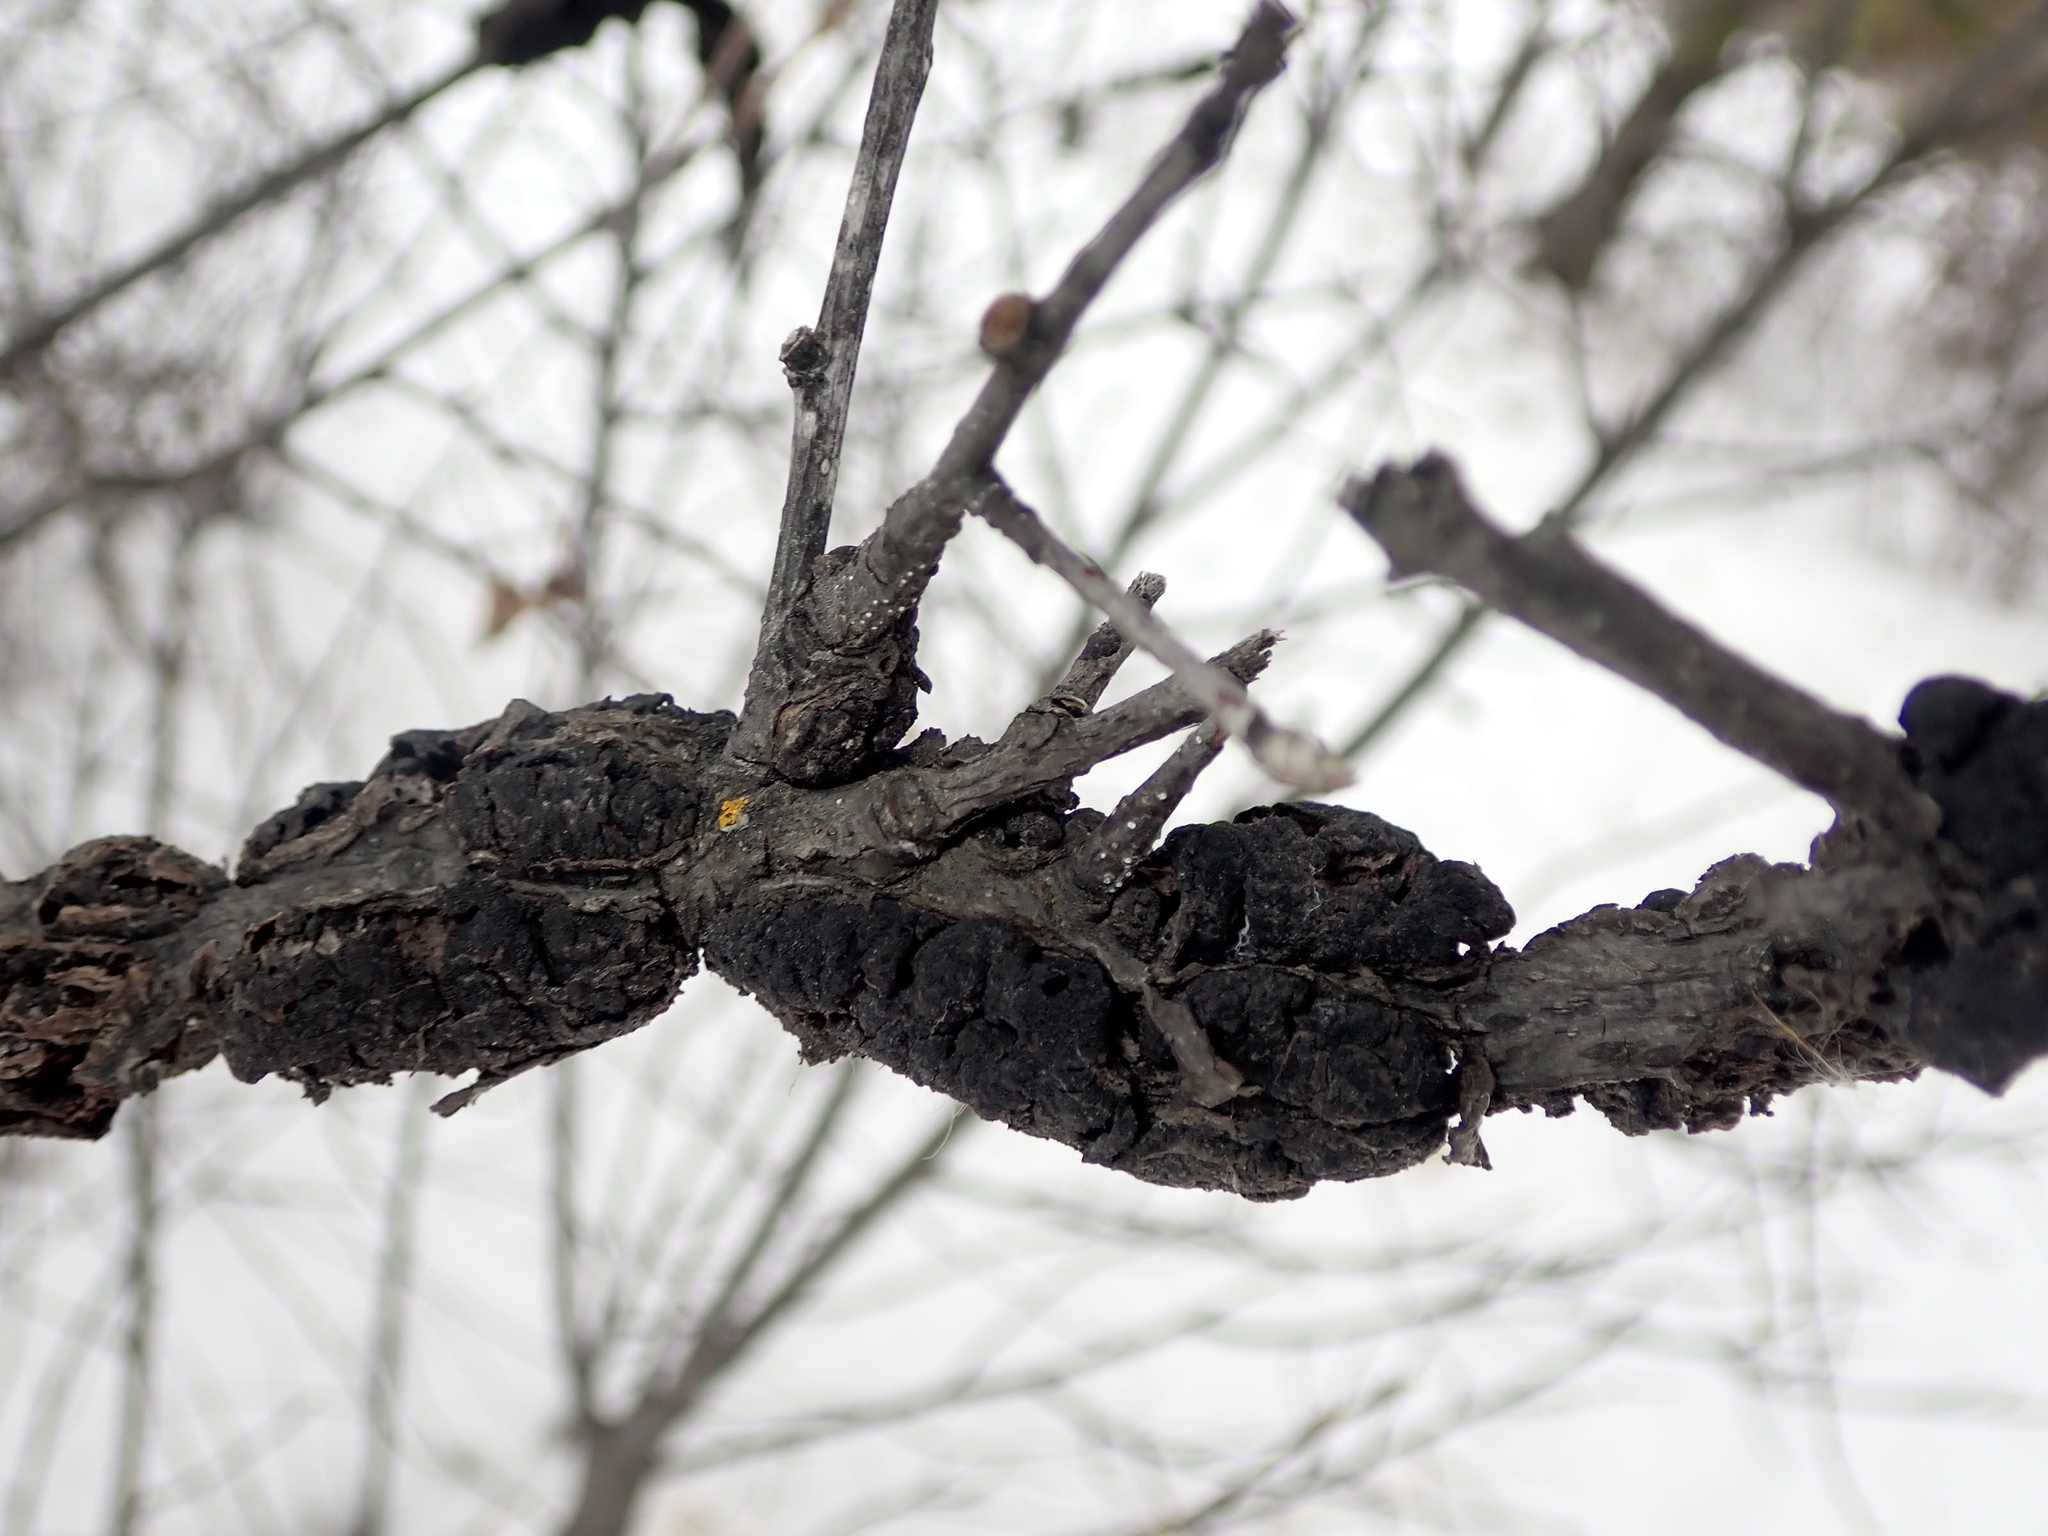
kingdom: Fungi
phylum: Ascomycota
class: Dothideomycetes
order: Venturiales
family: Venturiaceae
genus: Apiosporina
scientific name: Apiosporina morbosa
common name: Black knot
